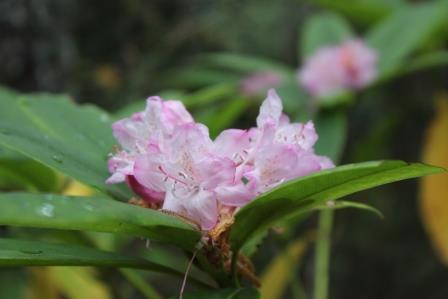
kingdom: Plantae
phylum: Tracheophyta
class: Magnoliopsida
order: Ericales
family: Ericaceae
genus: Rhododendron
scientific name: Rhododendron macrophyllum
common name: California rose bay
